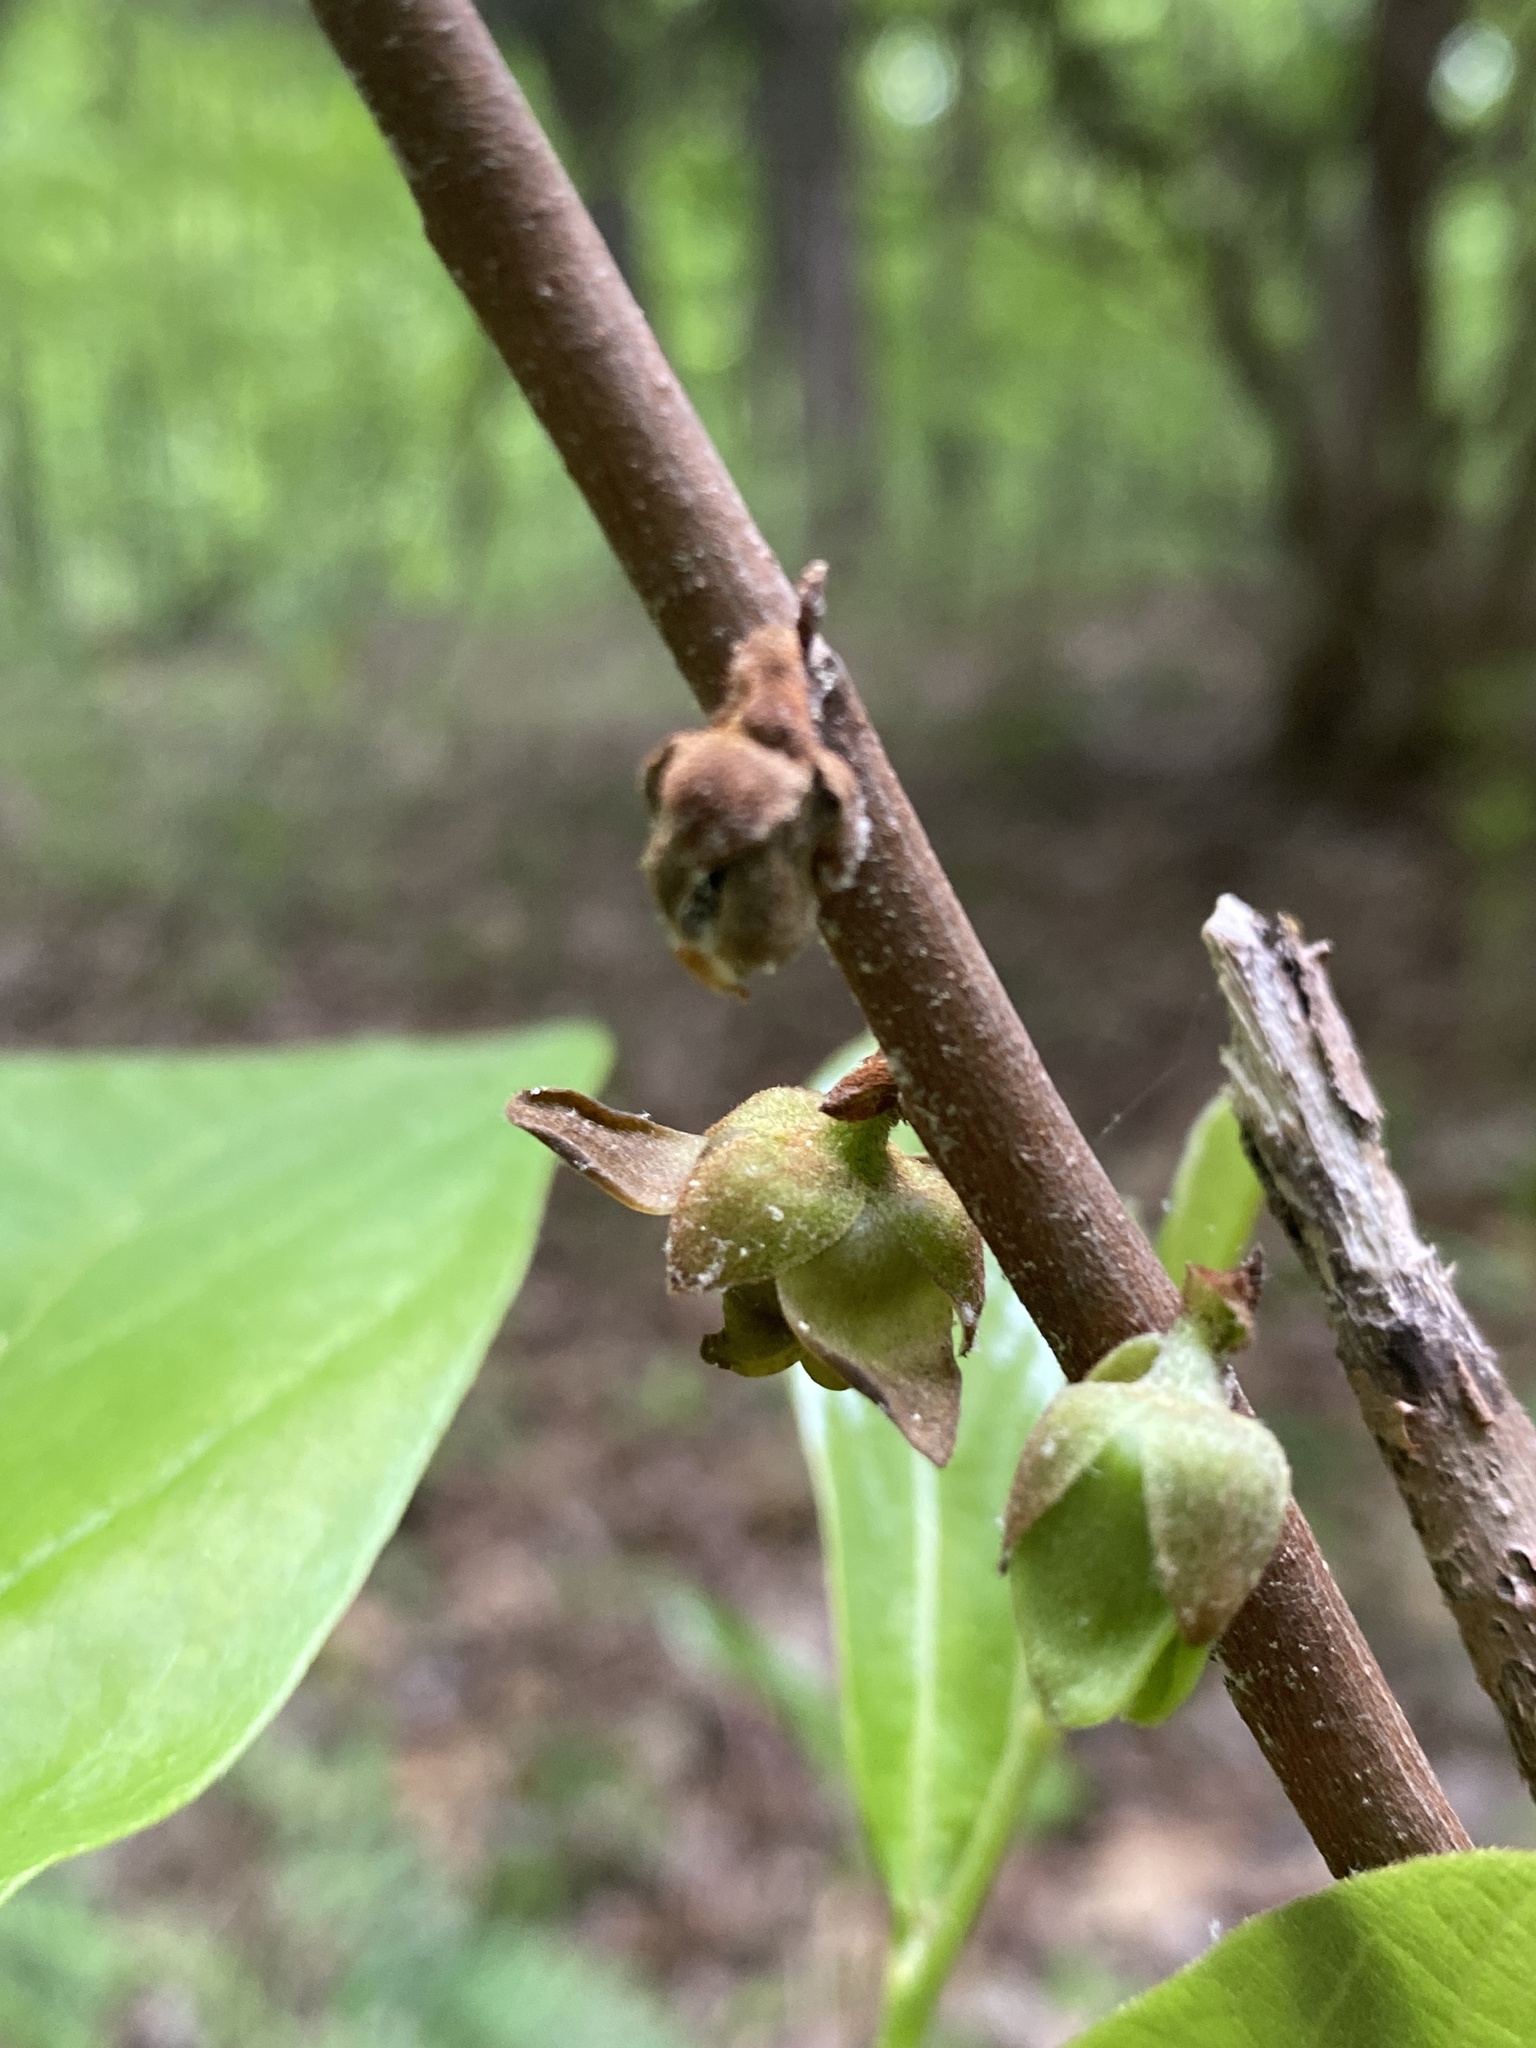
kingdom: Plantae
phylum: Tracheophyta
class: Magnoliopsida
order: Magnoliales
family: Annonaceae
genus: Asimina
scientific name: Asimina parviflora
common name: Dwarf pawpaw
